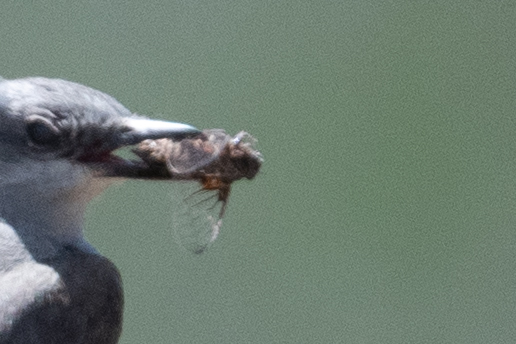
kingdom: Animalia
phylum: Chordata
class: Aves
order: Passeriformes
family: Tyrannidae
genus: Tyrannus
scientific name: Tyrannus verticalis
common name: Western kingbird
